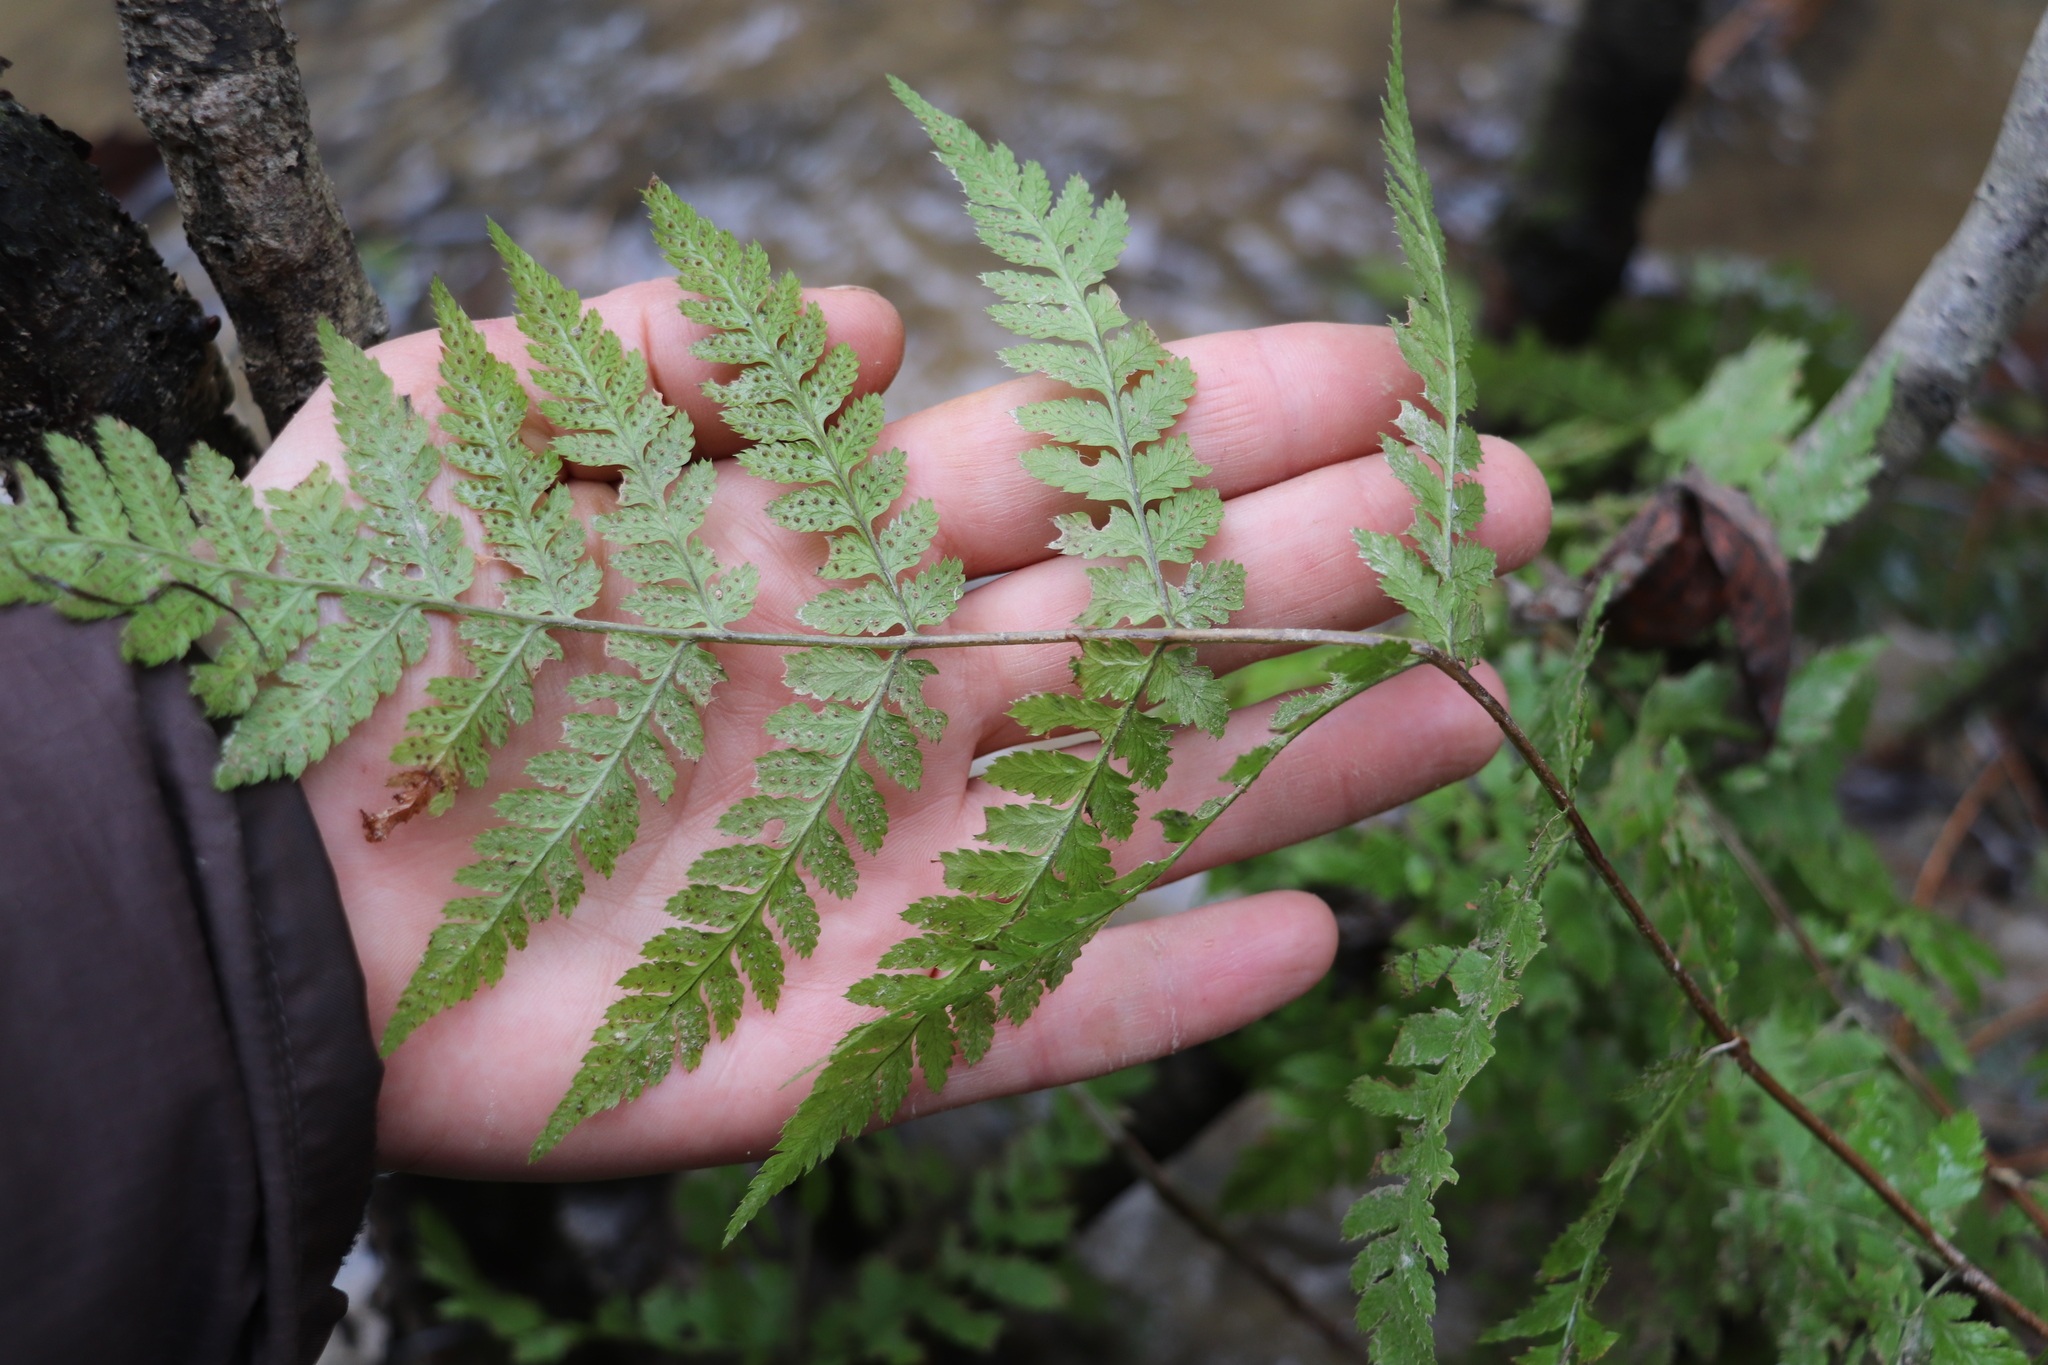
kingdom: Plantae
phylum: Tracheophyta
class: Polypodiopsida
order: Polypodiales
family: Dryopteridaceae
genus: Dryopteris
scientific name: Dryopteris carthusiana
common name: Narrow buckler-fern
